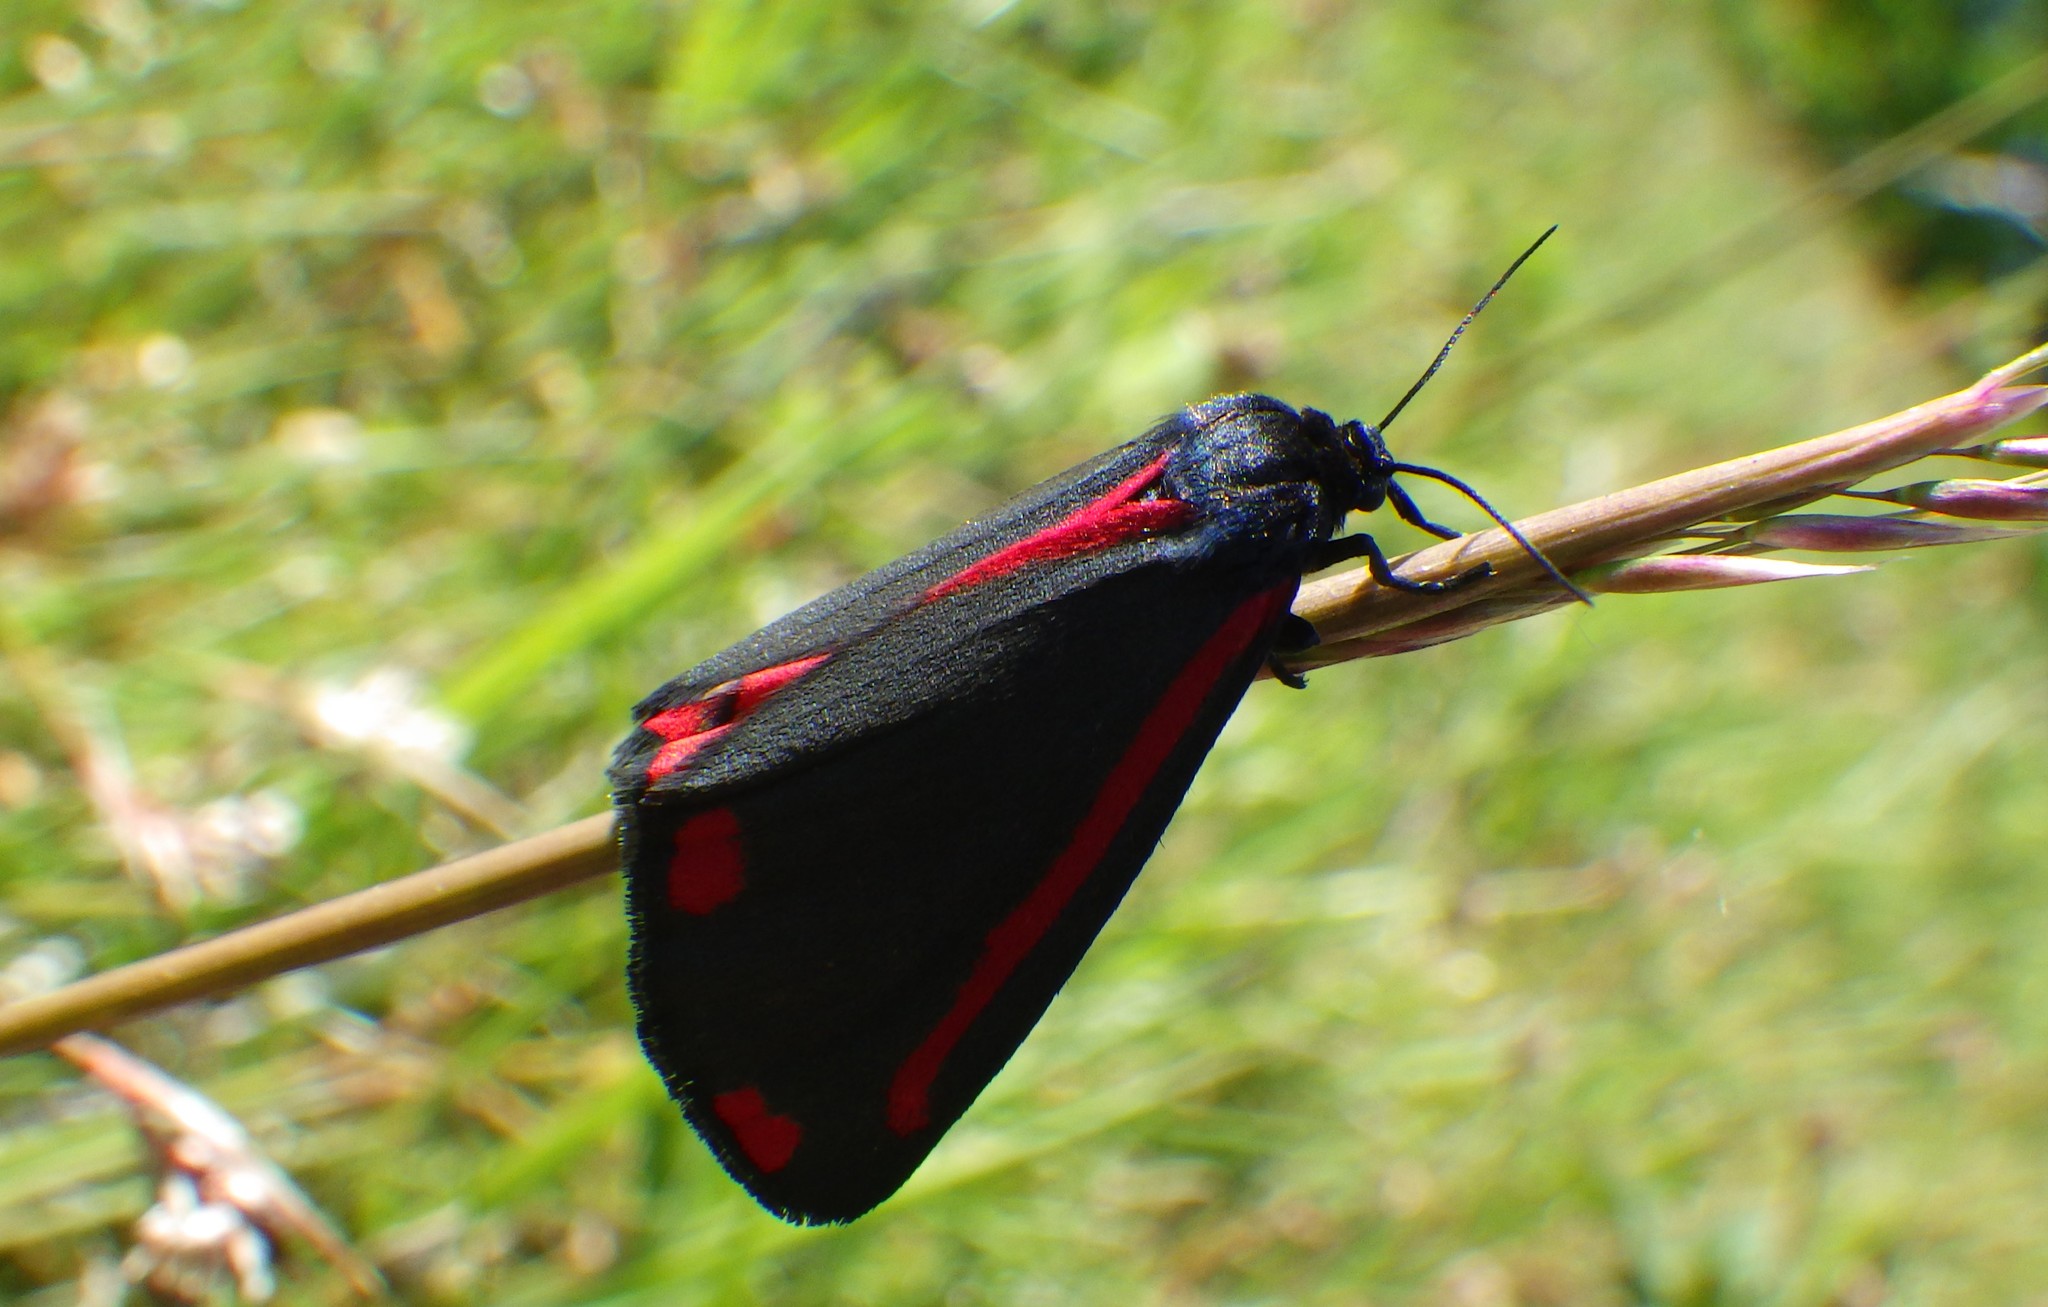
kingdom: Animalia
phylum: Arthropoda
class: Insecta
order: Lepidoptera
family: Erebidae
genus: Tyria
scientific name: Tyria jacobaeae
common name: Cinnabar
